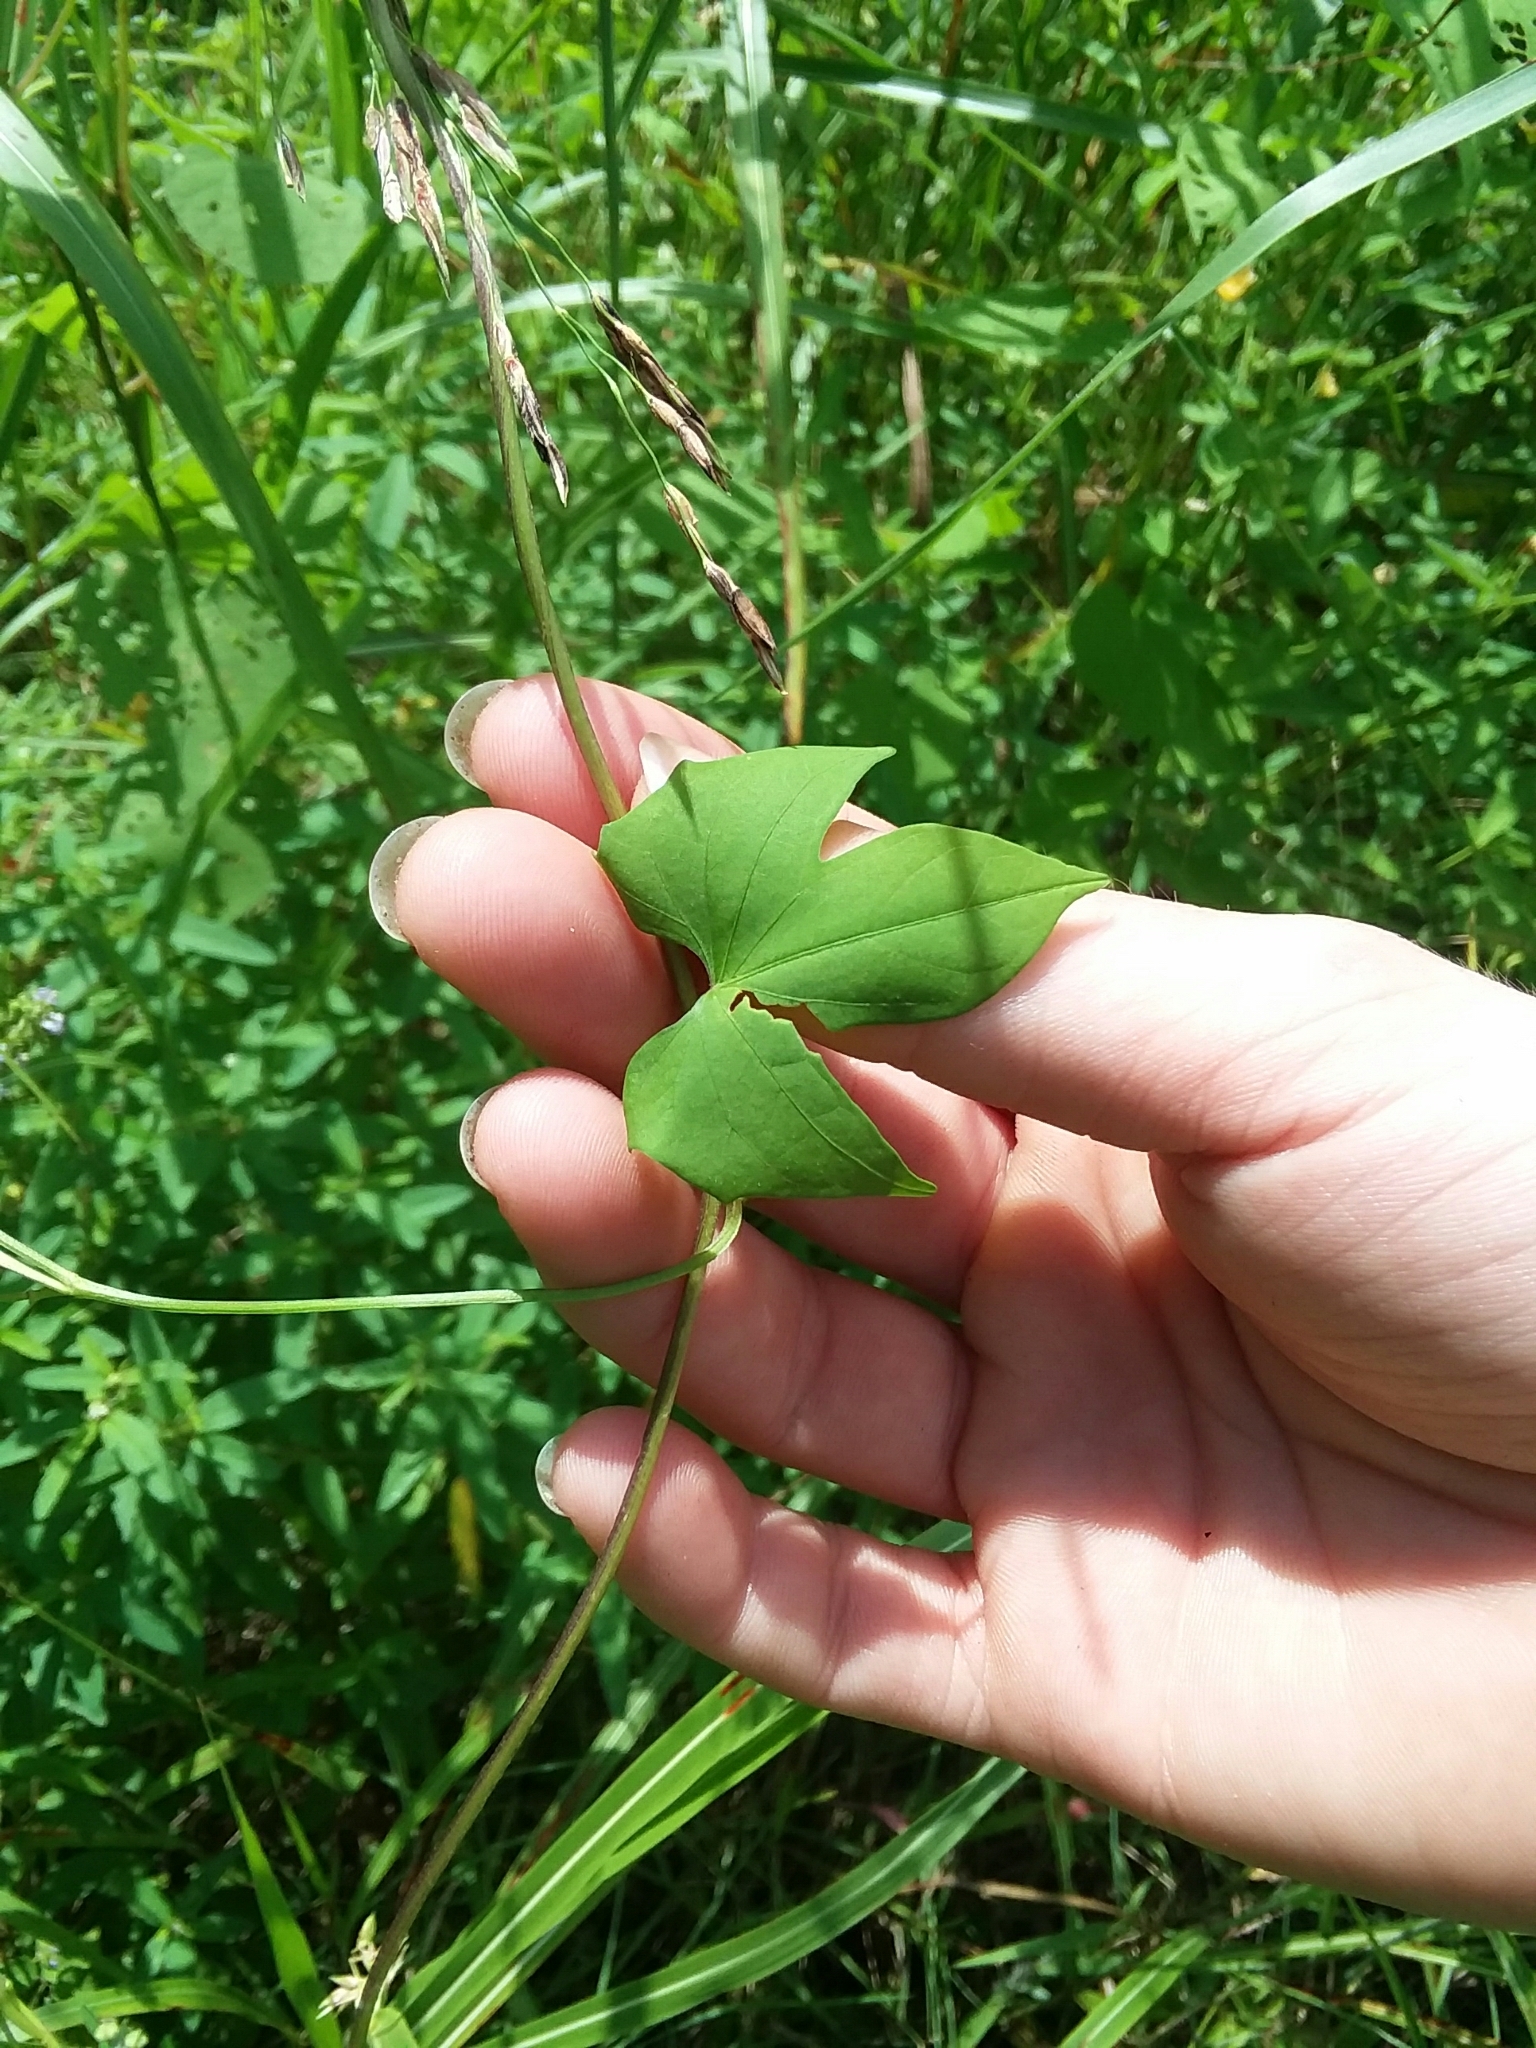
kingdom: Plantae
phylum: Tracheophyta
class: Magnoliopsida
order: Solanales
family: Convolvulaceae
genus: Ipomoea
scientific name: Ipomoea hederifolia
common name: Ivy-leaf morning-glory
